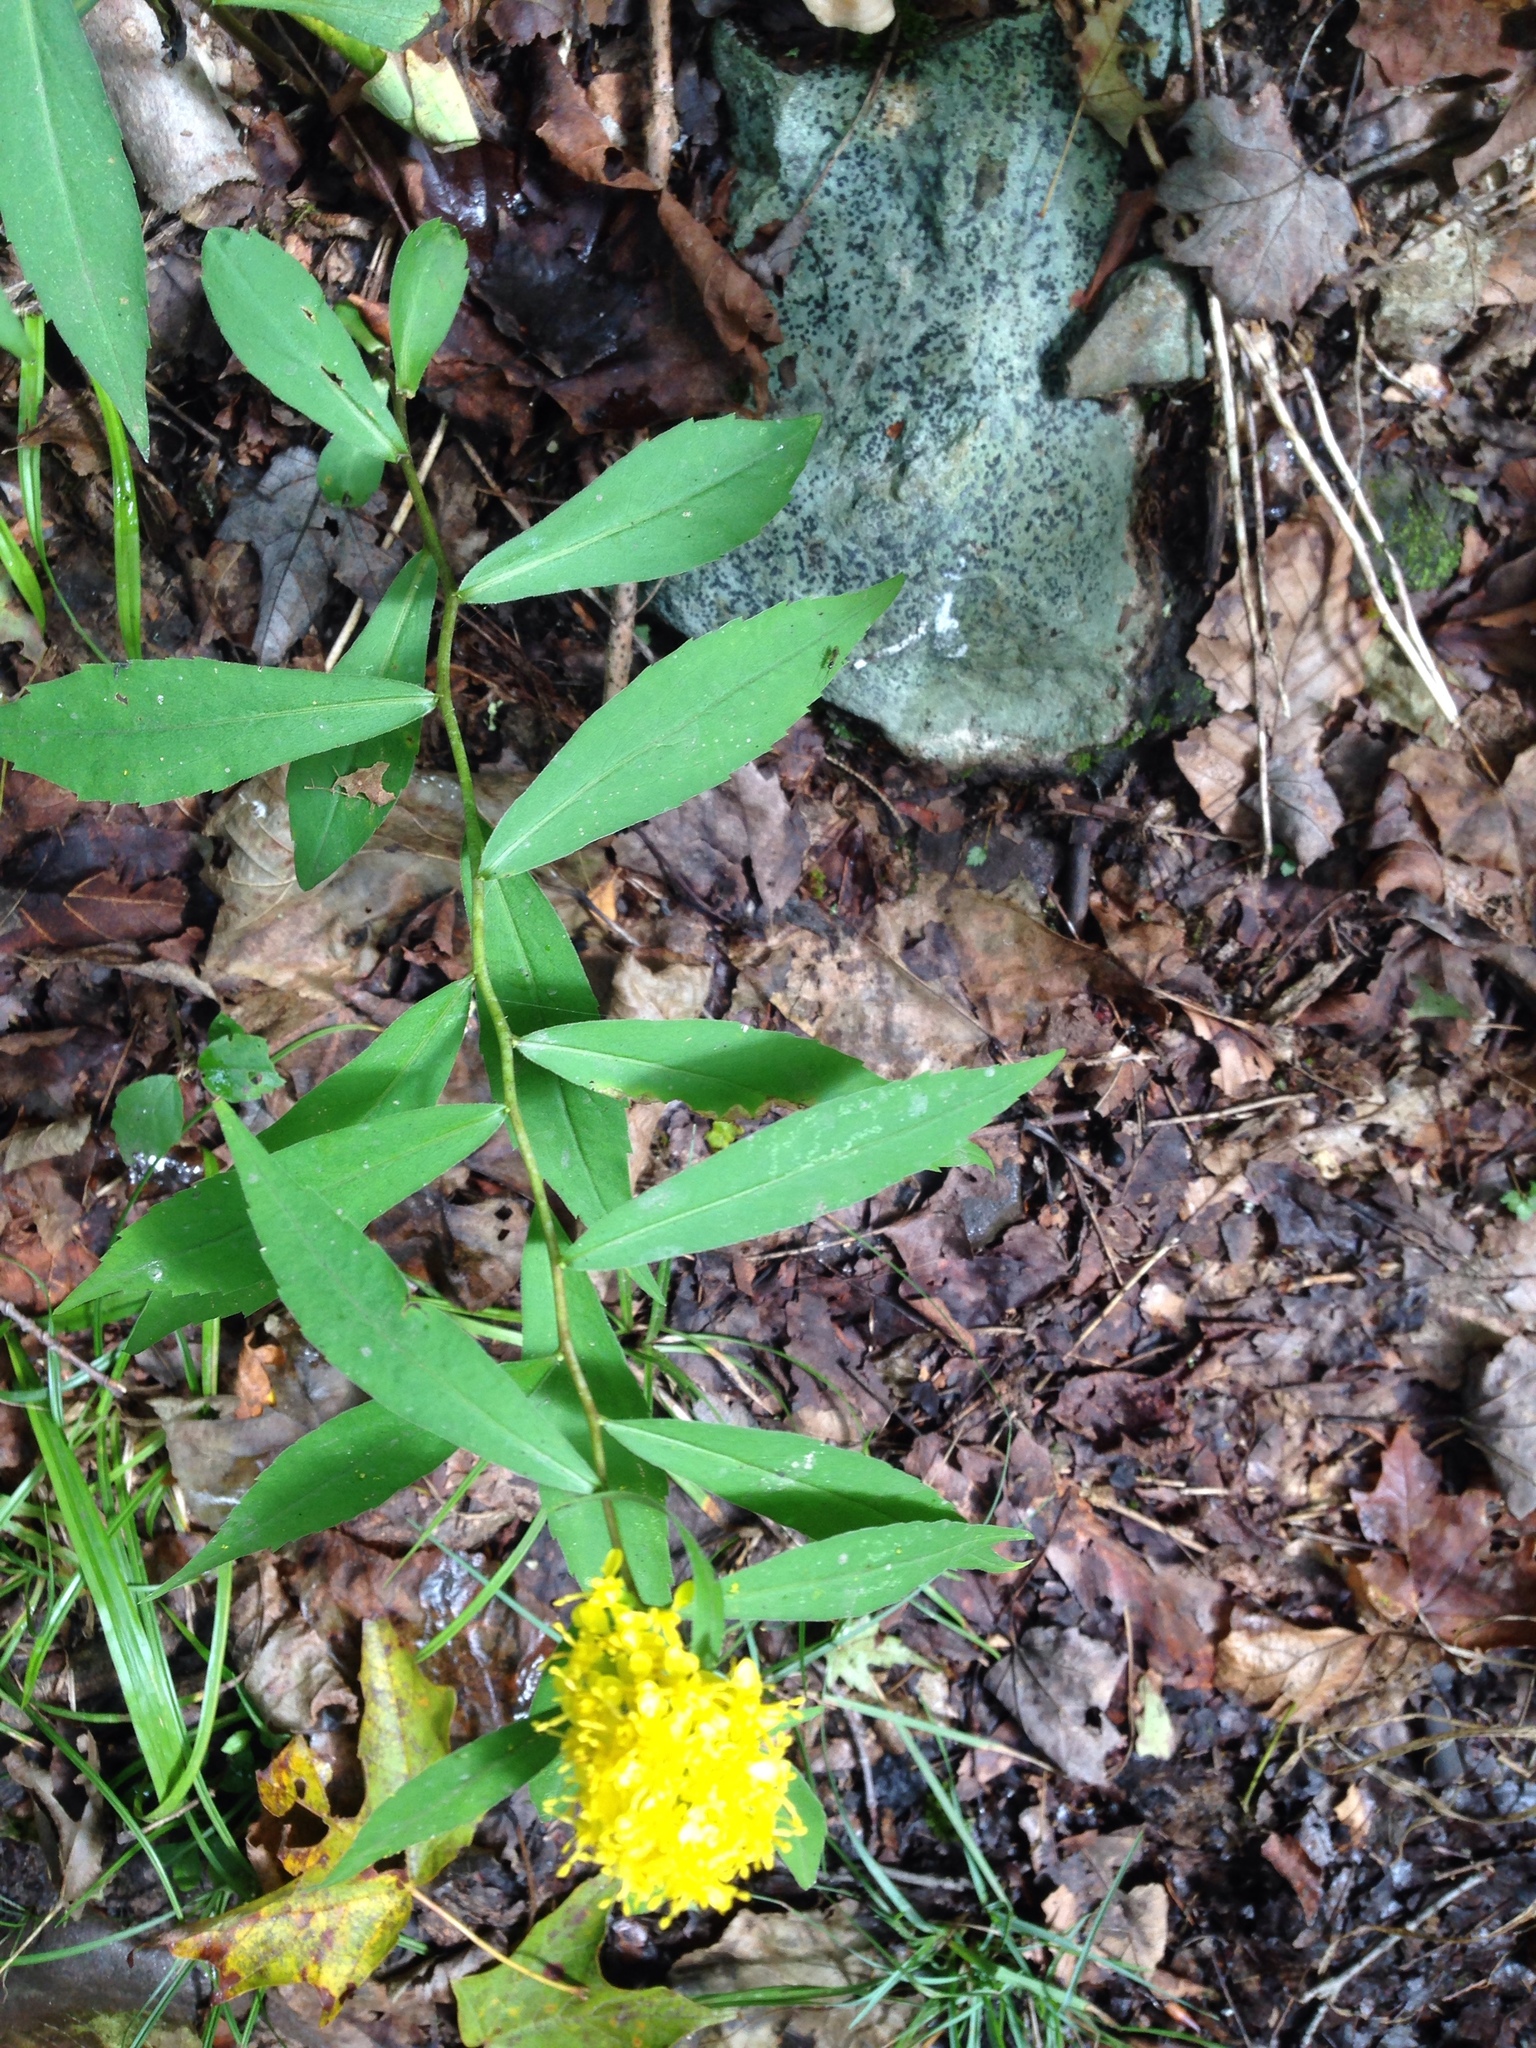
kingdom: Plantae
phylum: Tracheophyta
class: Magnoliopsida
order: Asterales
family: Asteraceae
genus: Solidago
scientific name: Solidago caesia
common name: Woodland goldenrod
